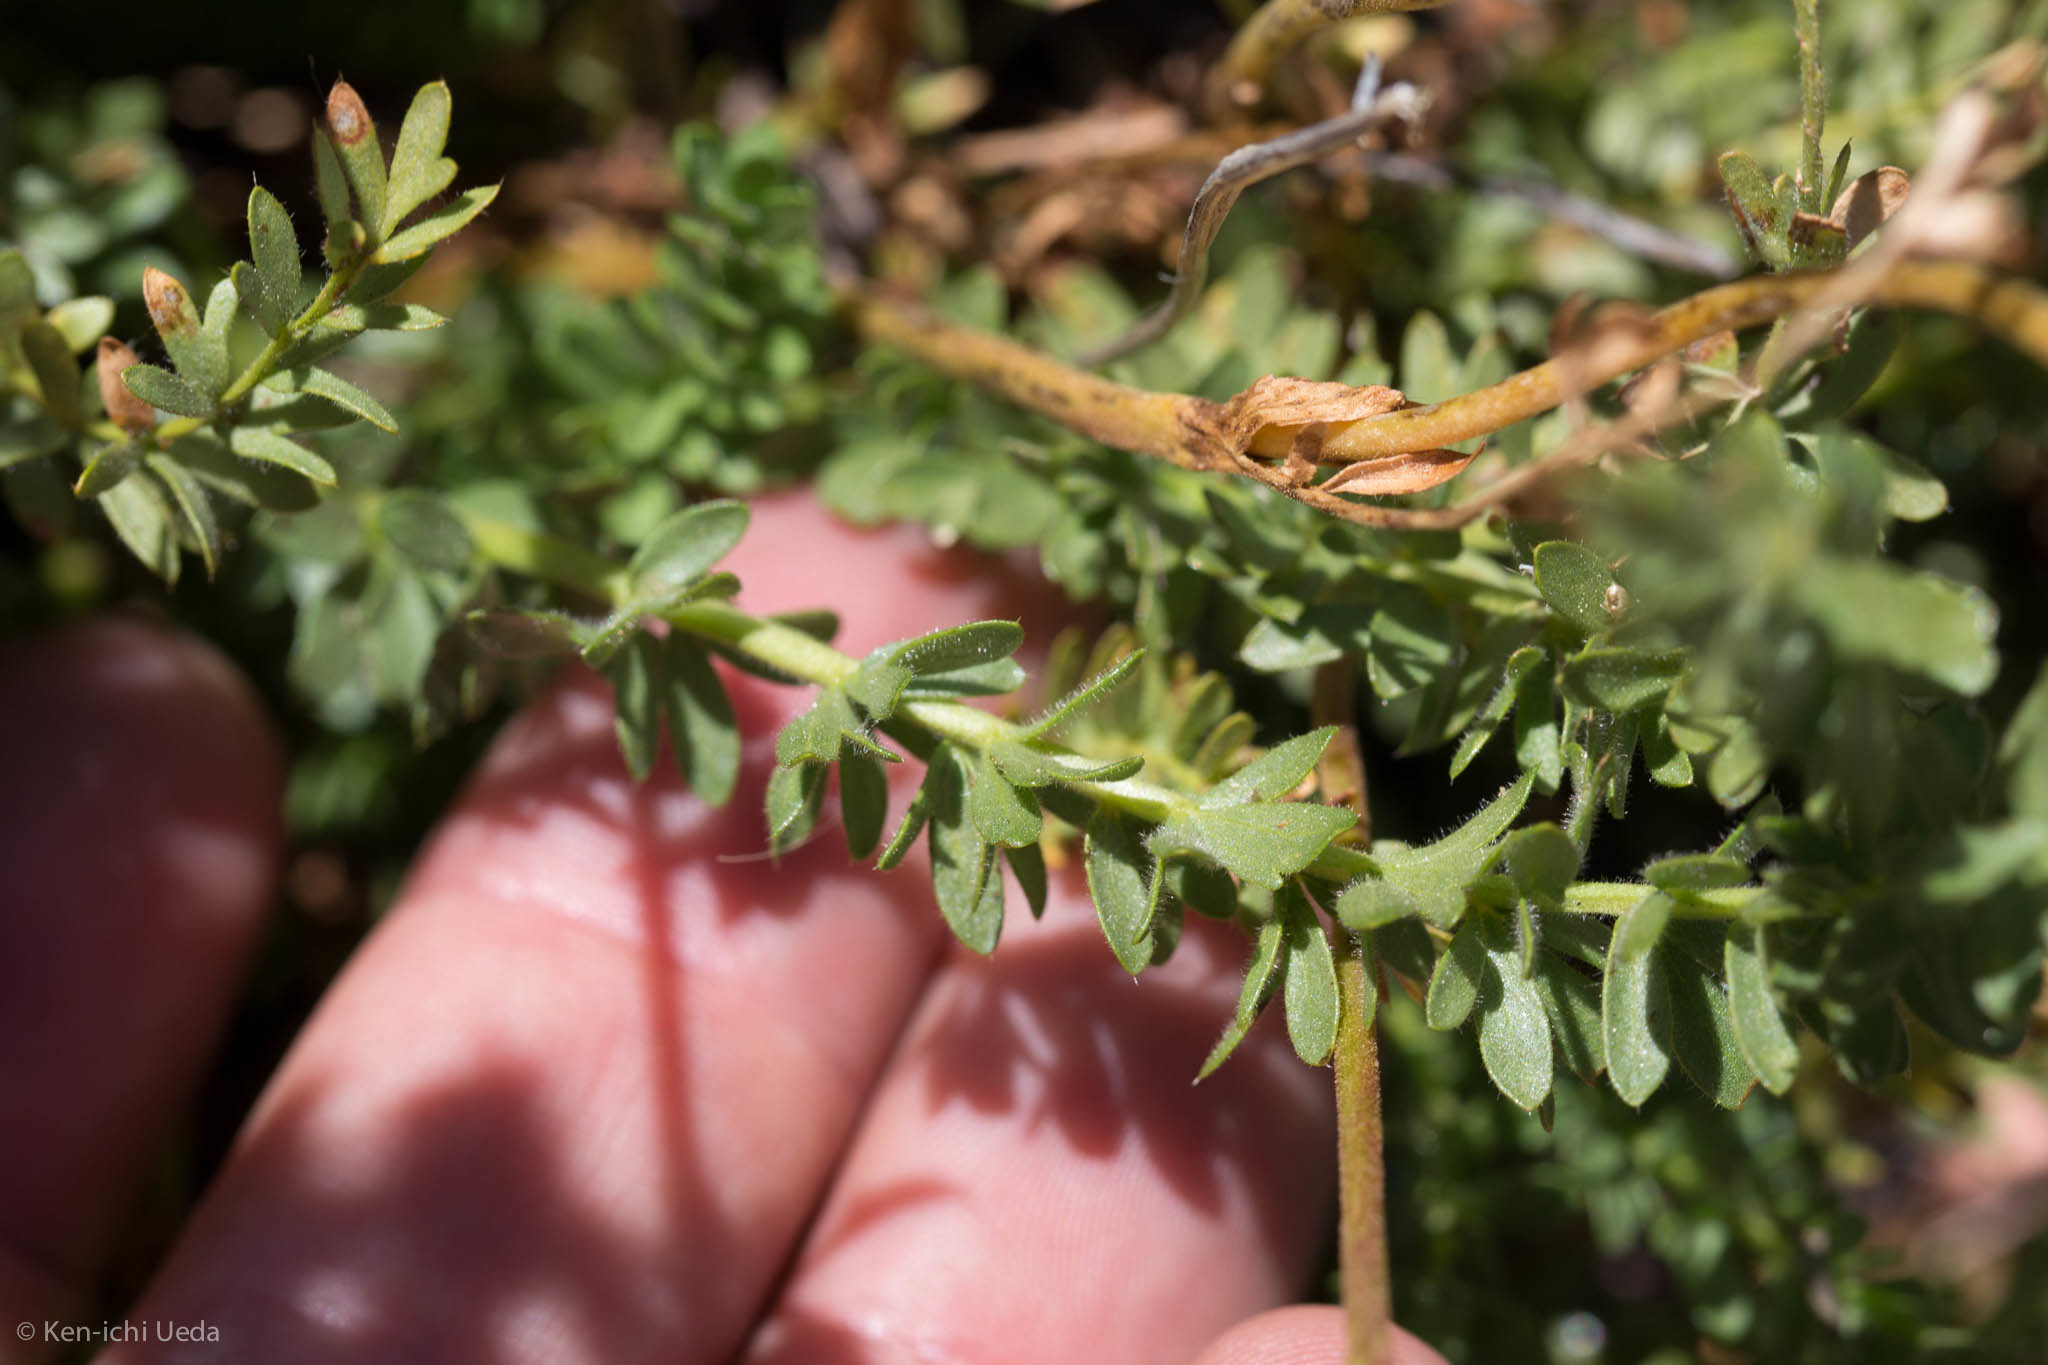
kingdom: Plantae
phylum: Tracheophyta
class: Magnoliopsida
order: Rosales
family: Rosaceae
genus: Potentilla
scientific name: Potentilla gordonii
